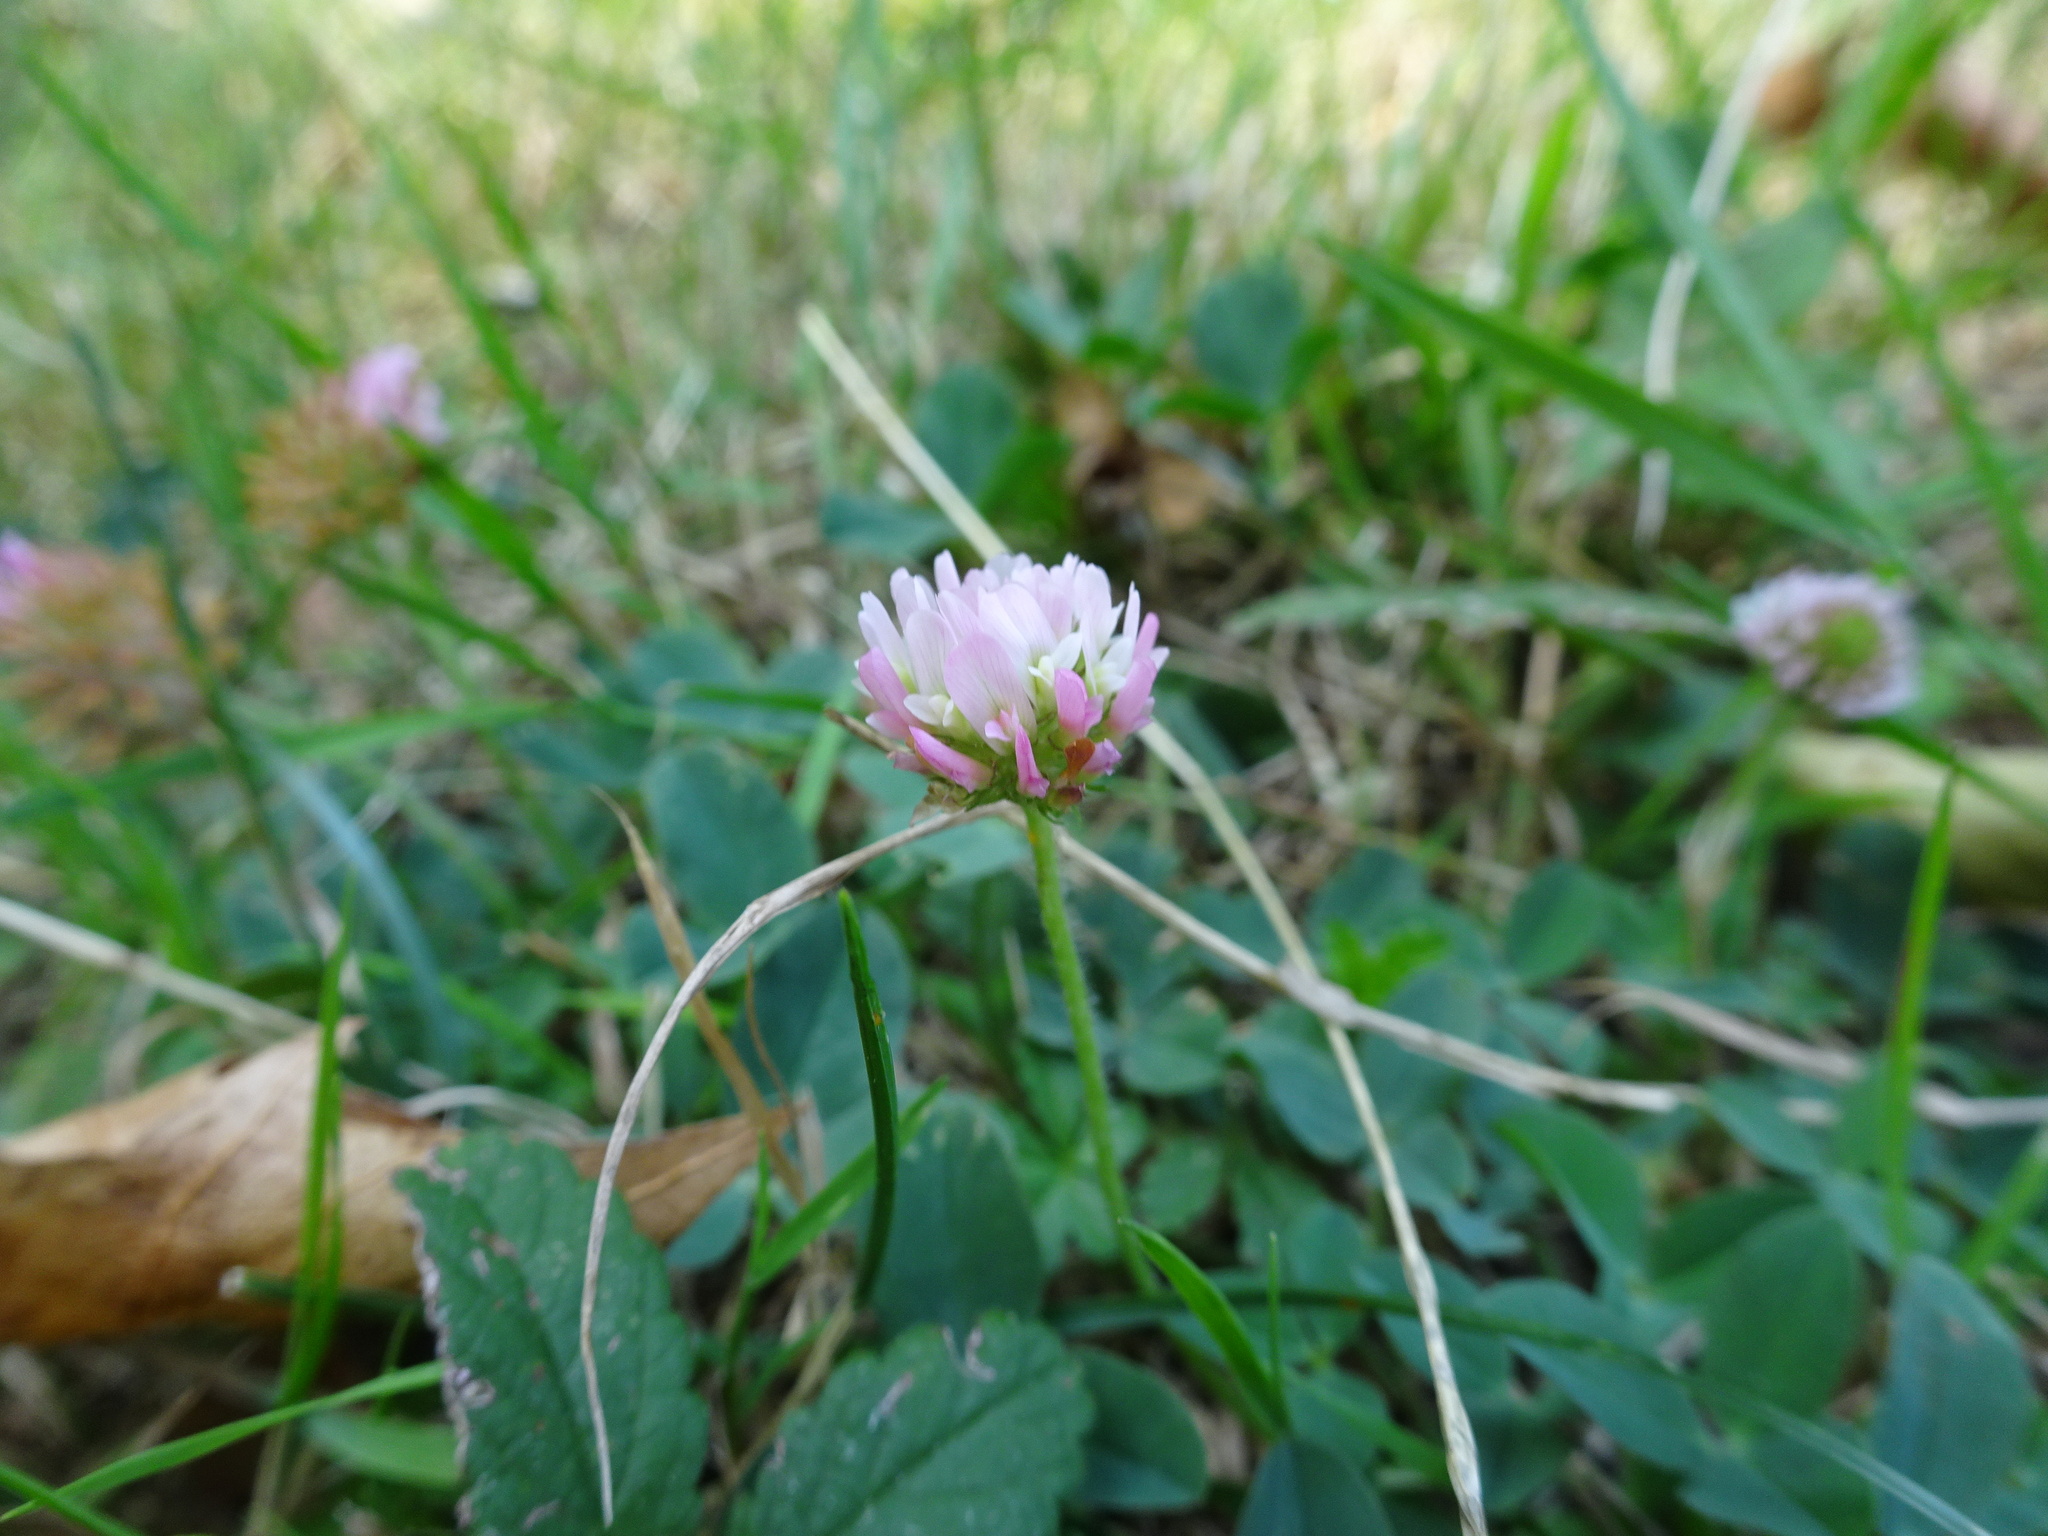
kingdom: Plantae
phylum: Tracheophyta
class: Magnoliopsida
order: Fabales
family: Fabaceae
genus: Trifolium
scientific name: Trifolium fragiferum
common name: Strawberry clover
